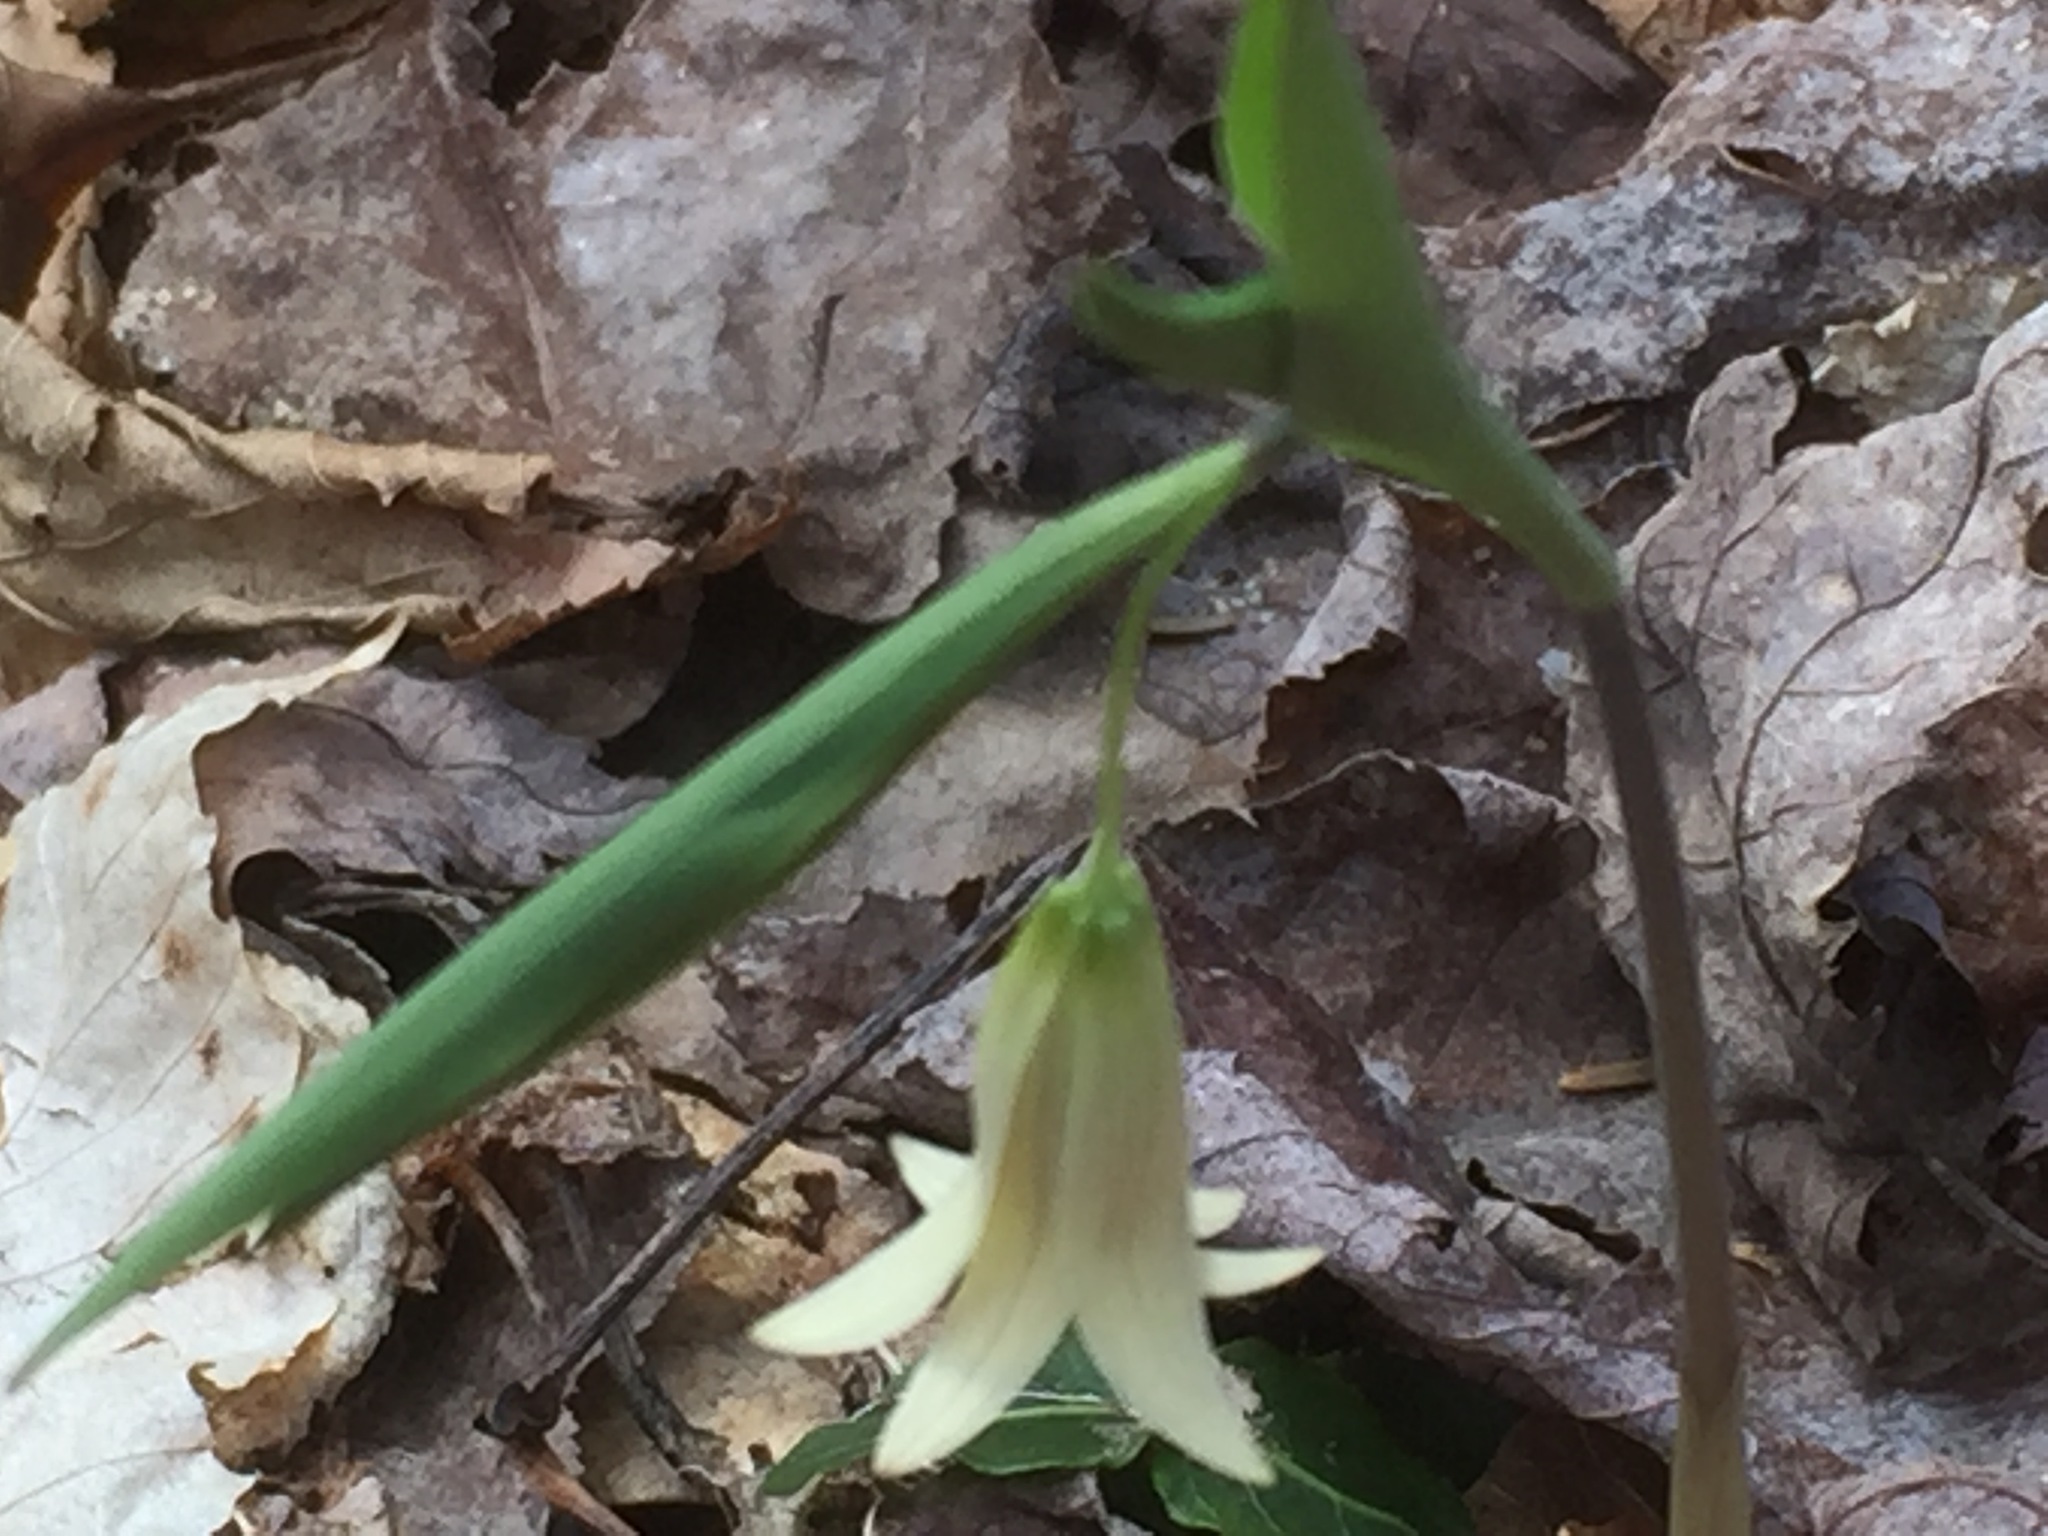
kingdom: Plantae
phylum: Tracheophyta
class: Liliopsida
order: Liliales
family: Colchicaceae
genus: Uvularia
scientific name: Uvularia sessilifolia
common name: Straw-lily
